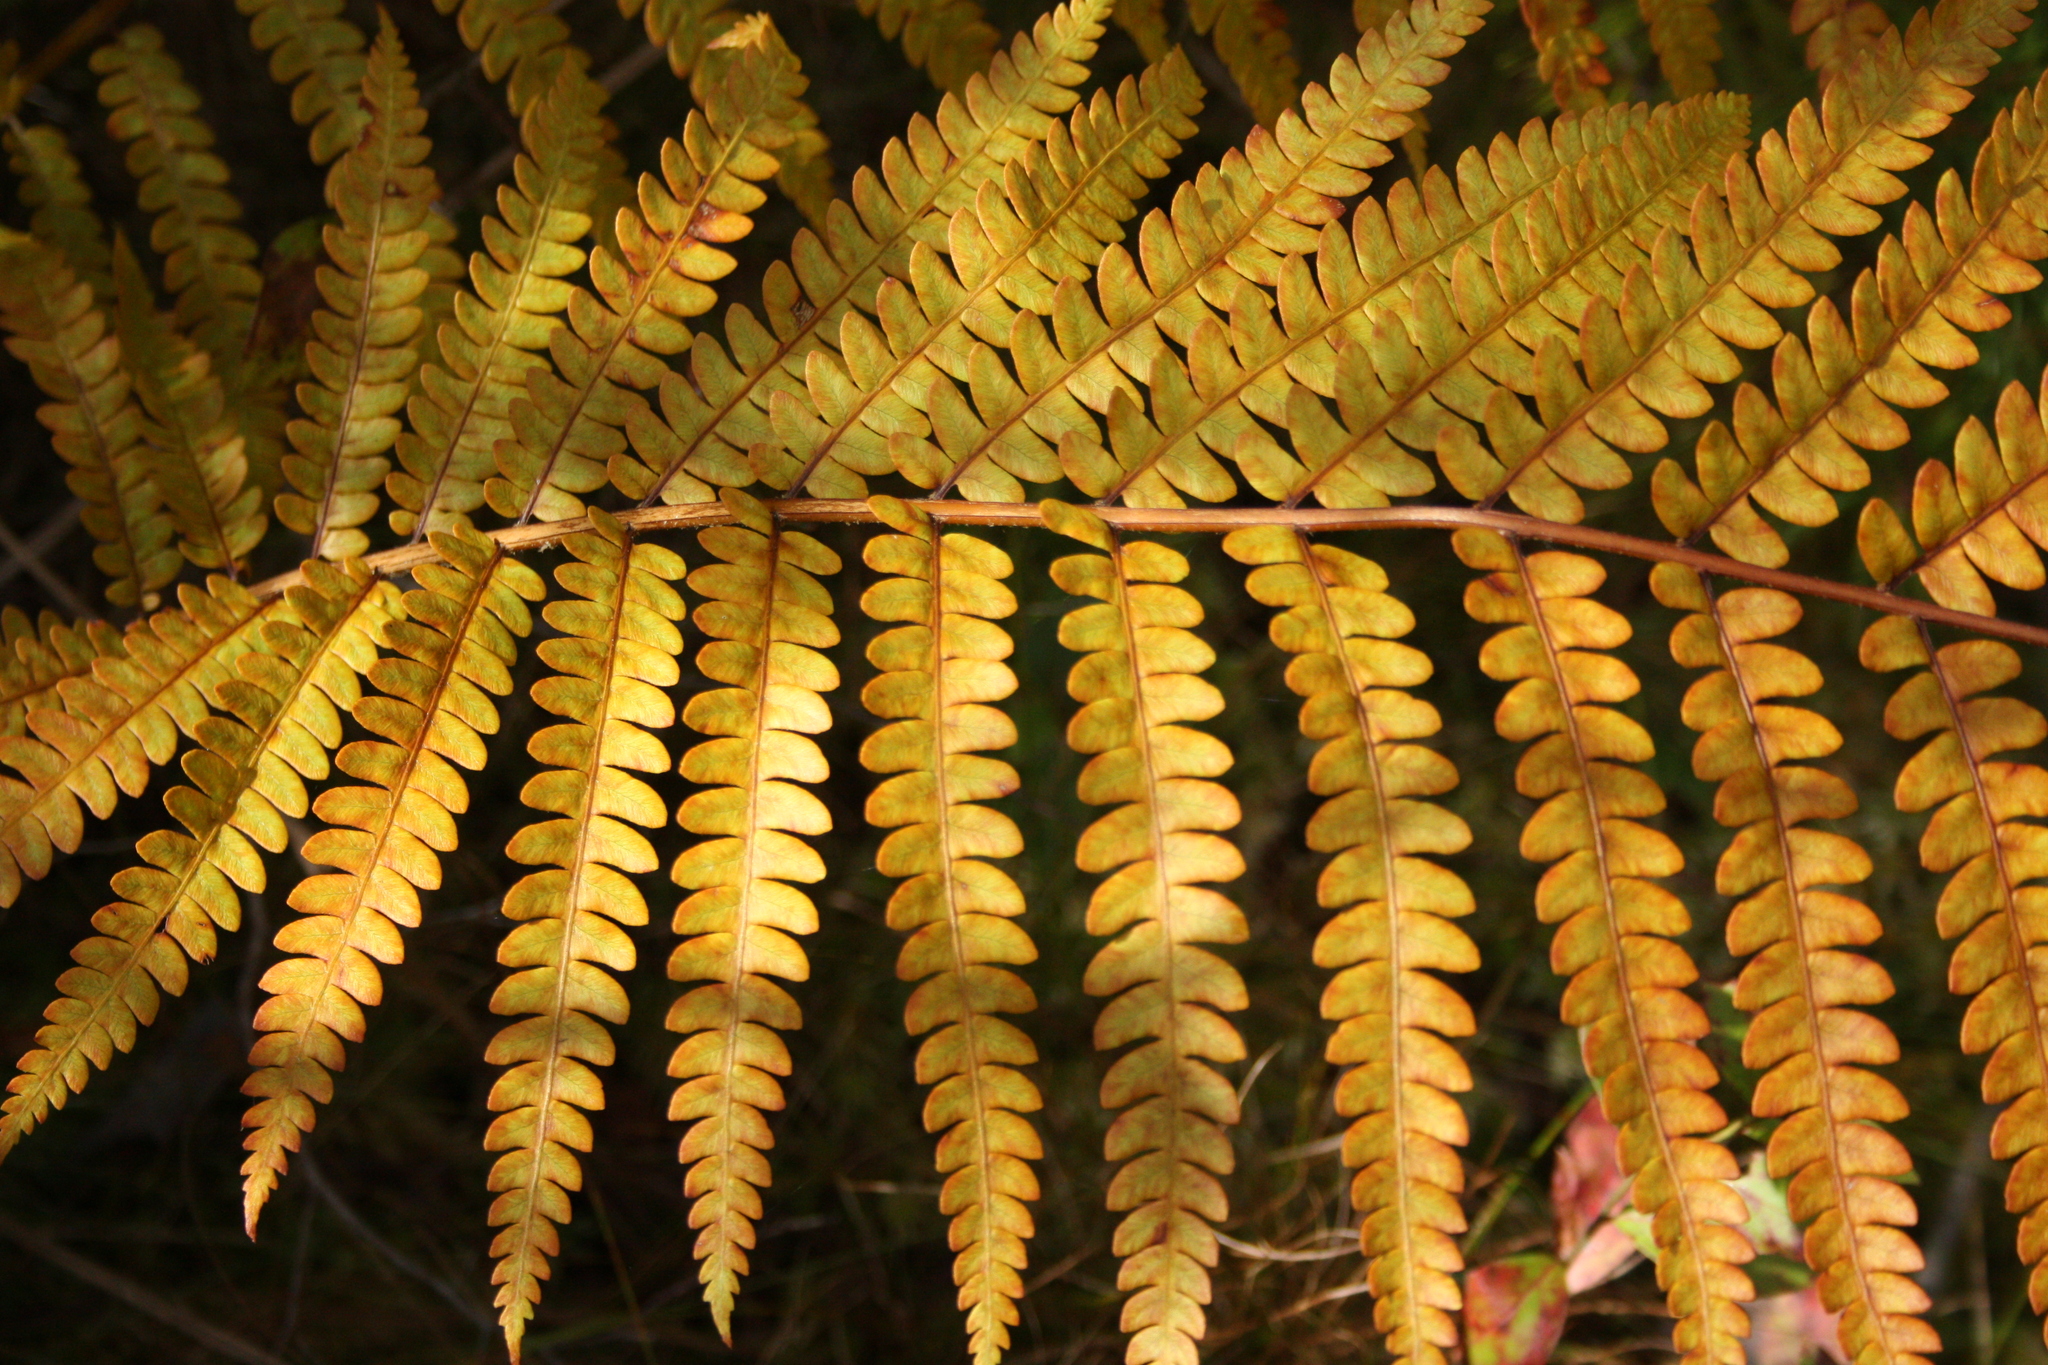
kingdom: Plantae
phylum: Tracheophyta
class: Polypodiopsida
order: Osmundales
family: Osmundaceae
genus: Osmundastrum
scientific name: Osmundastrum cinnamomeum
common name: Cinnamon fern
